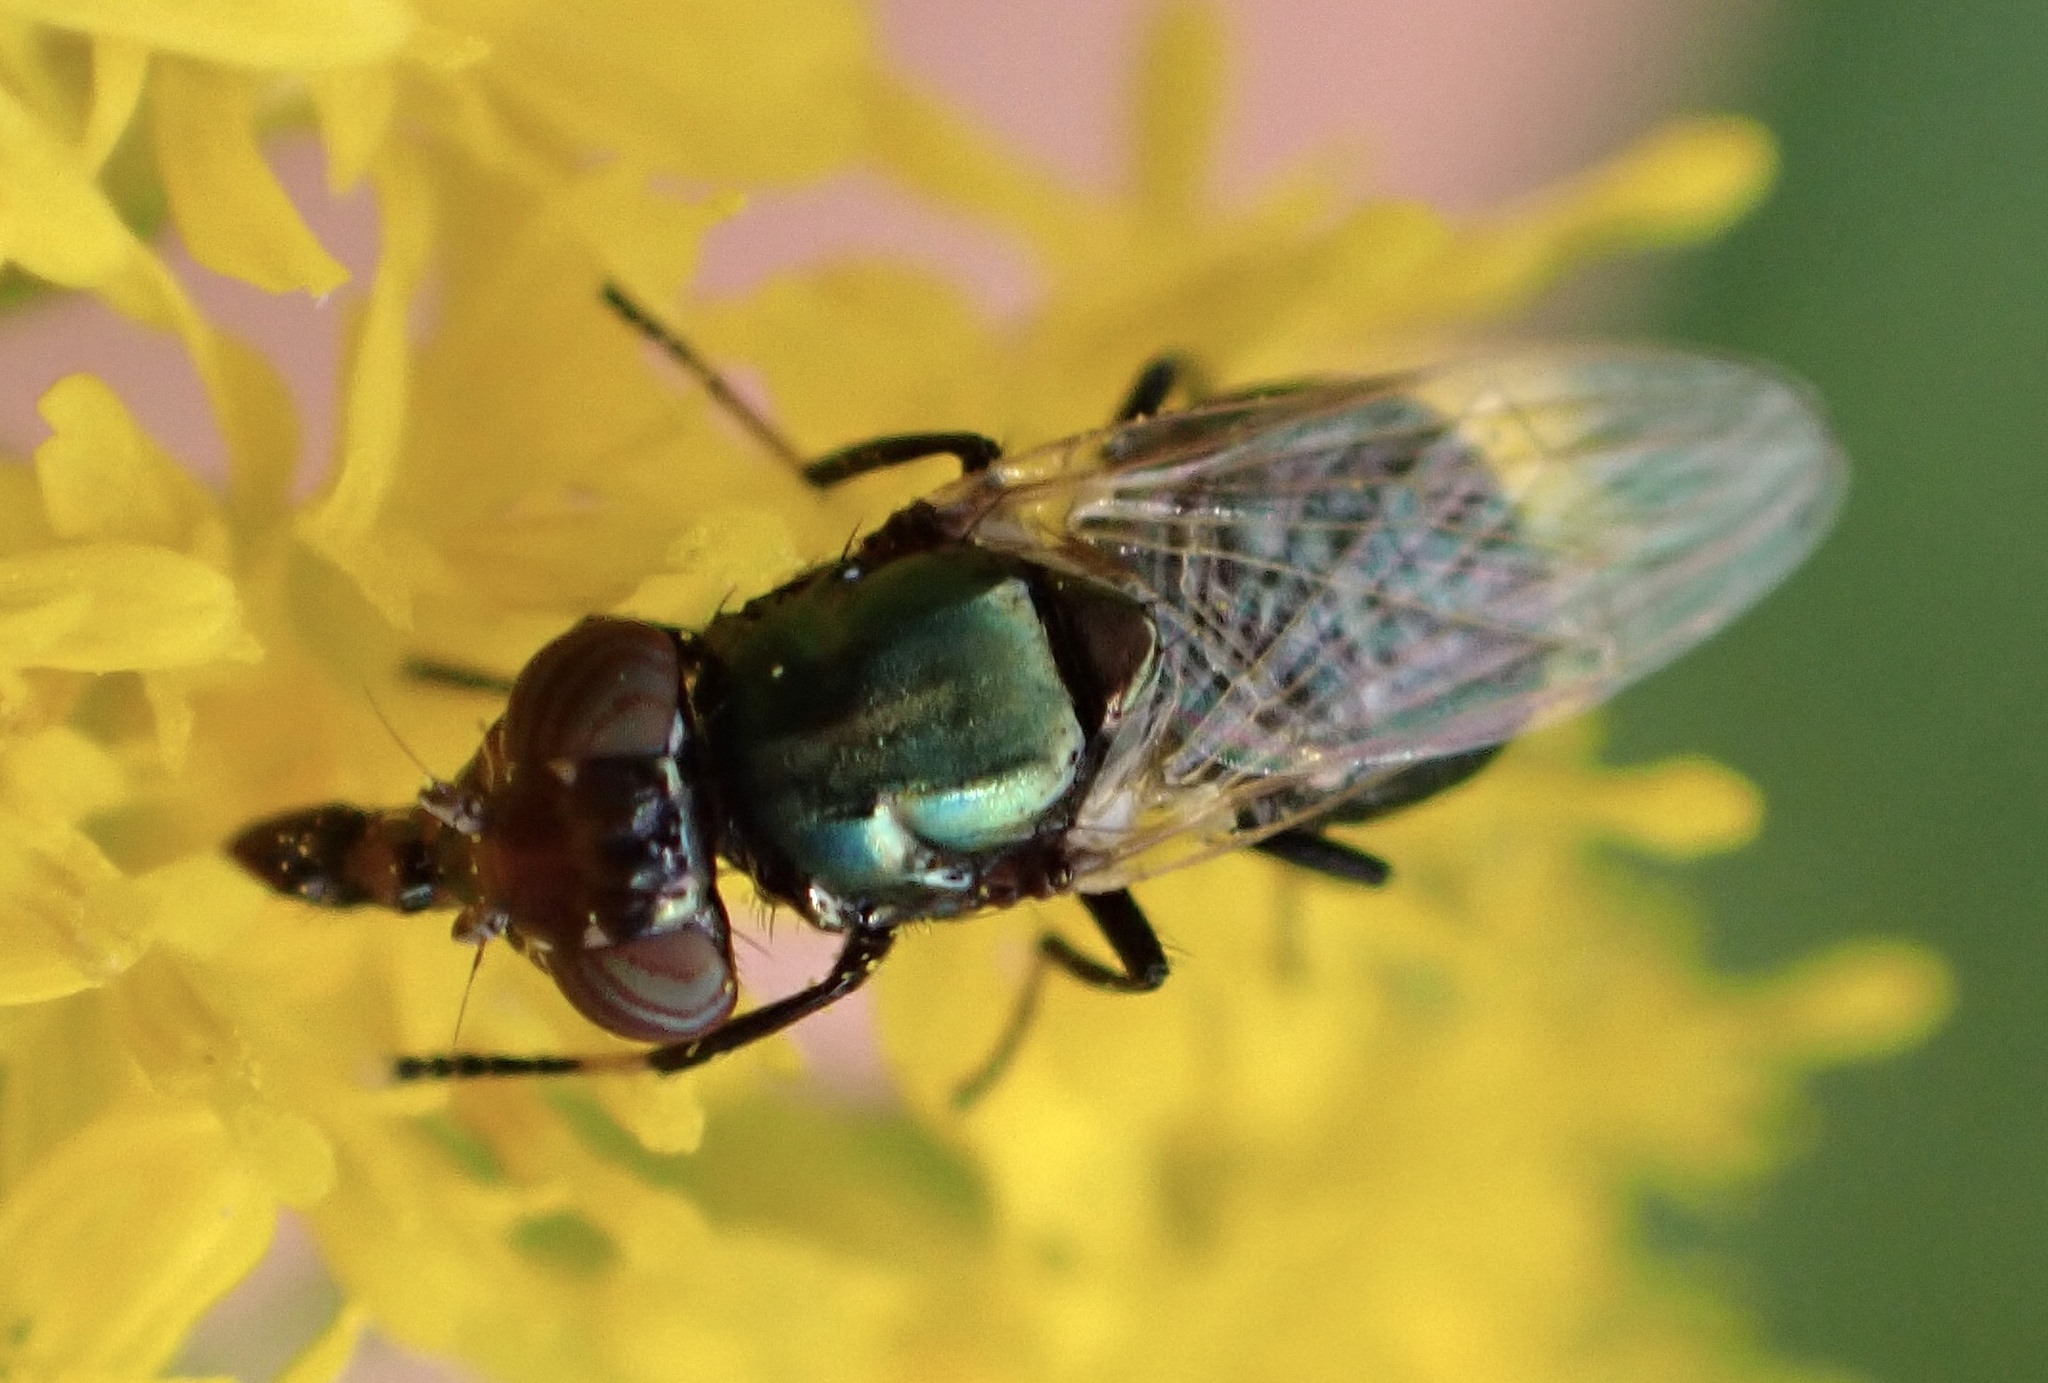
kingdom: Animalia
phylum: Arthropoda
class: Insecta
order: Diptera
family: Ulidiidae
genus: Physiphora
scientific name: Physiphora alceae
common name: Picture-winged fly
